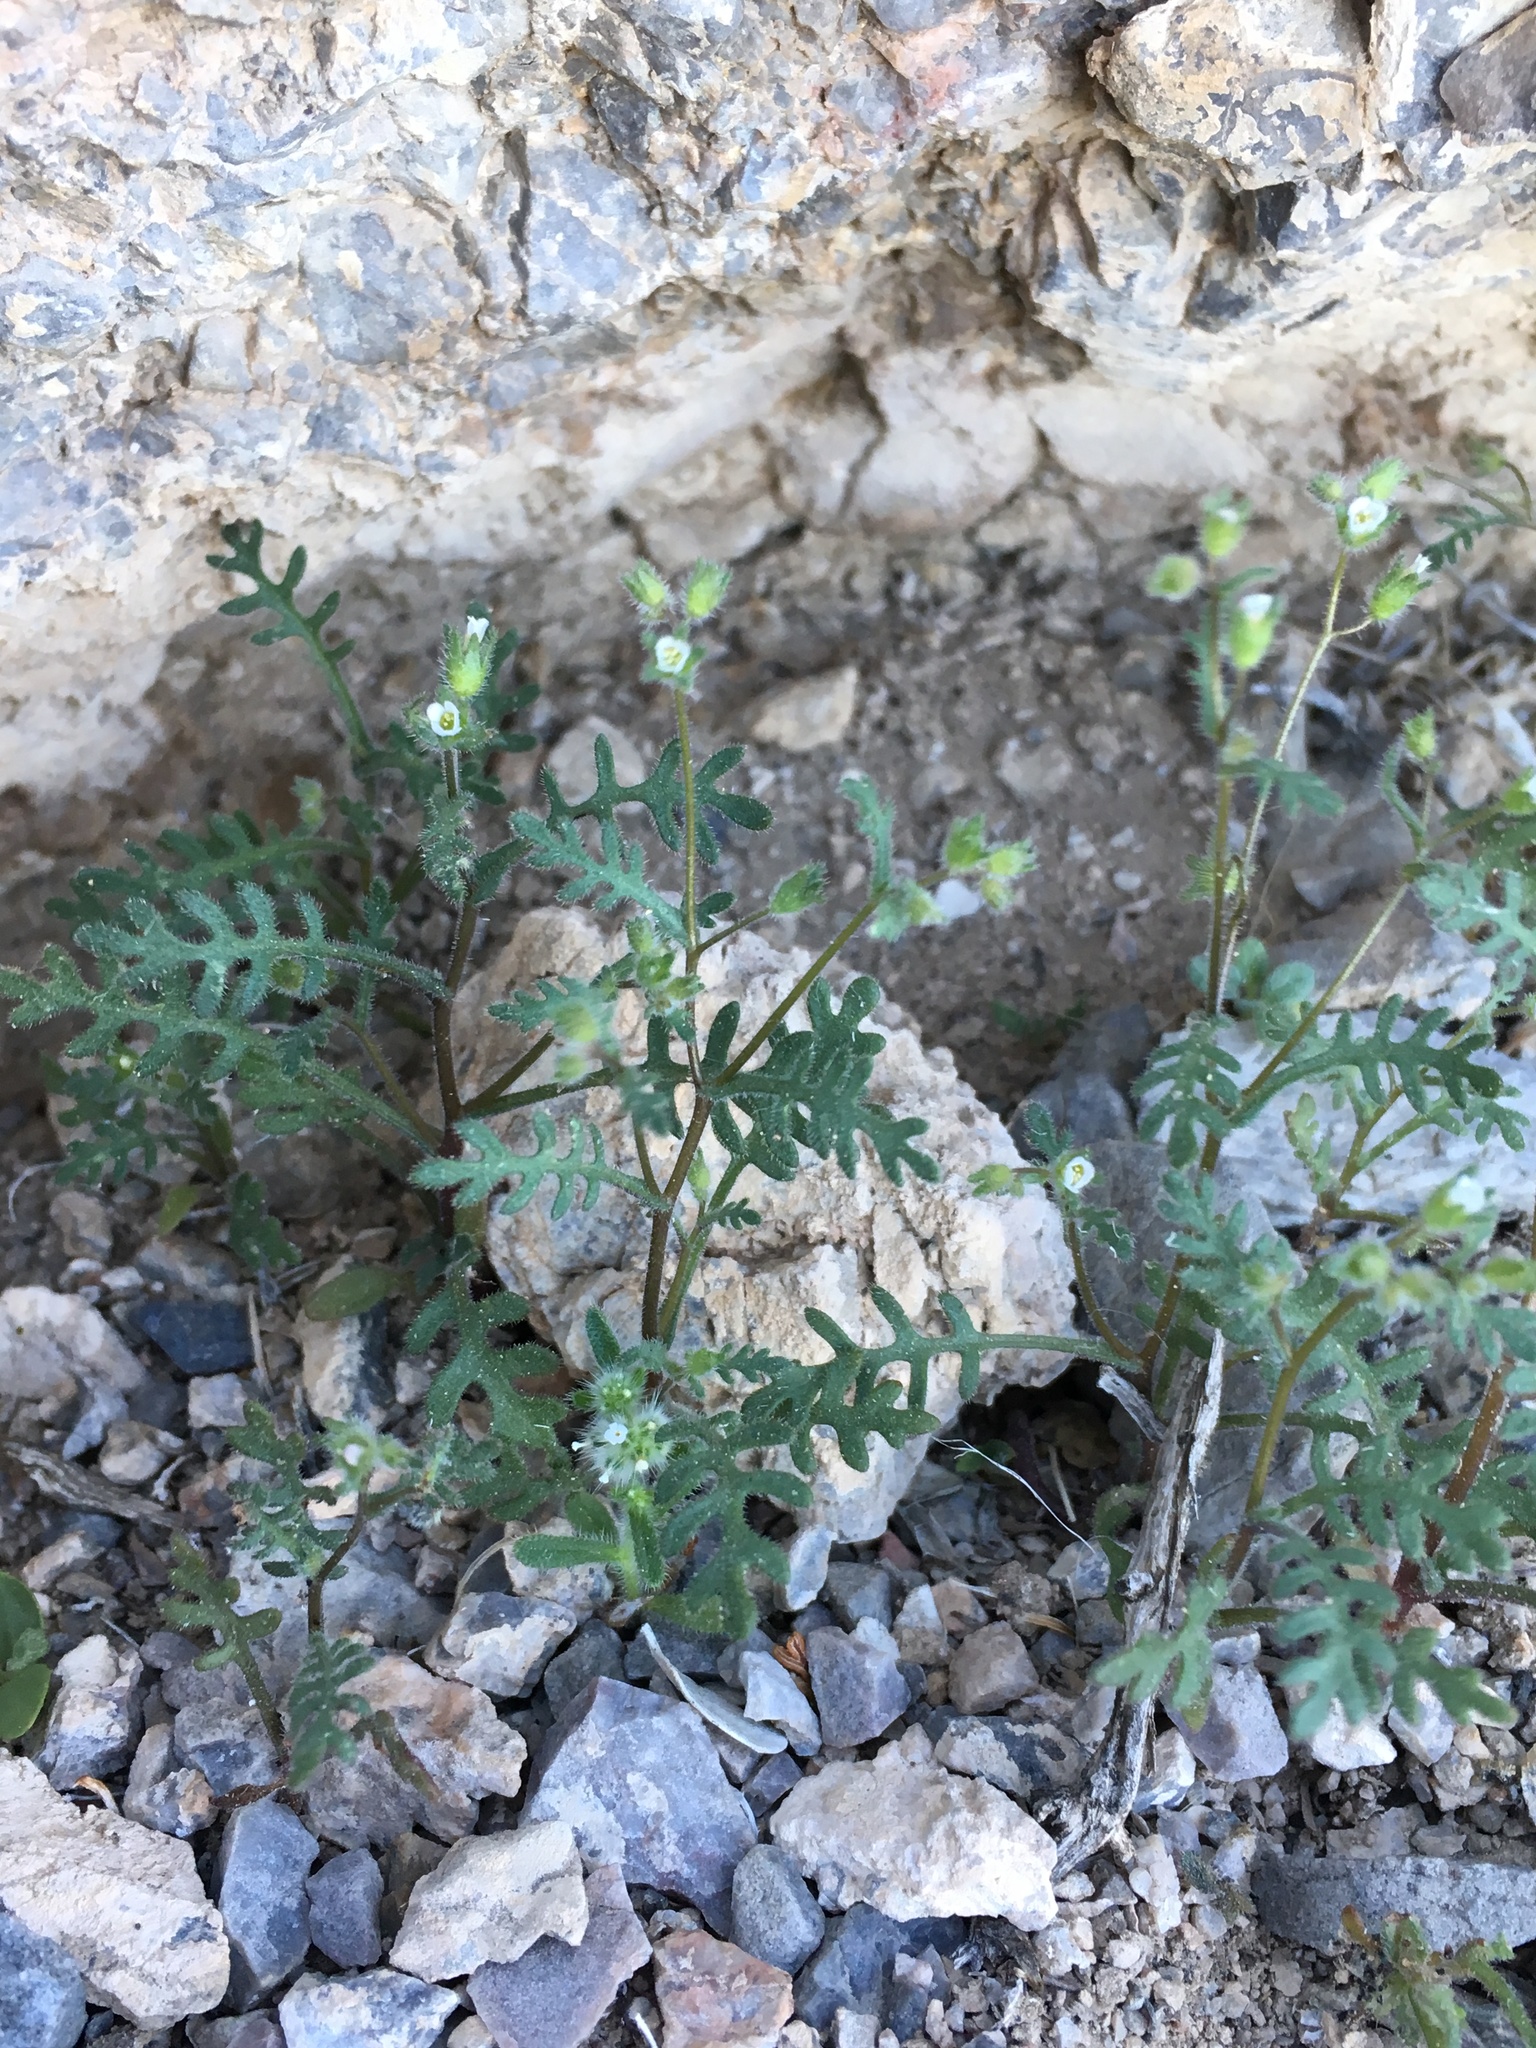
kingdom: Plantae
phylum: Tracheophyta
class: Magnoliopsida
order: Boraginales
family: Hydrophyllaceae
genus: Eucrypta
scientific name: Eucrypta micrantha
